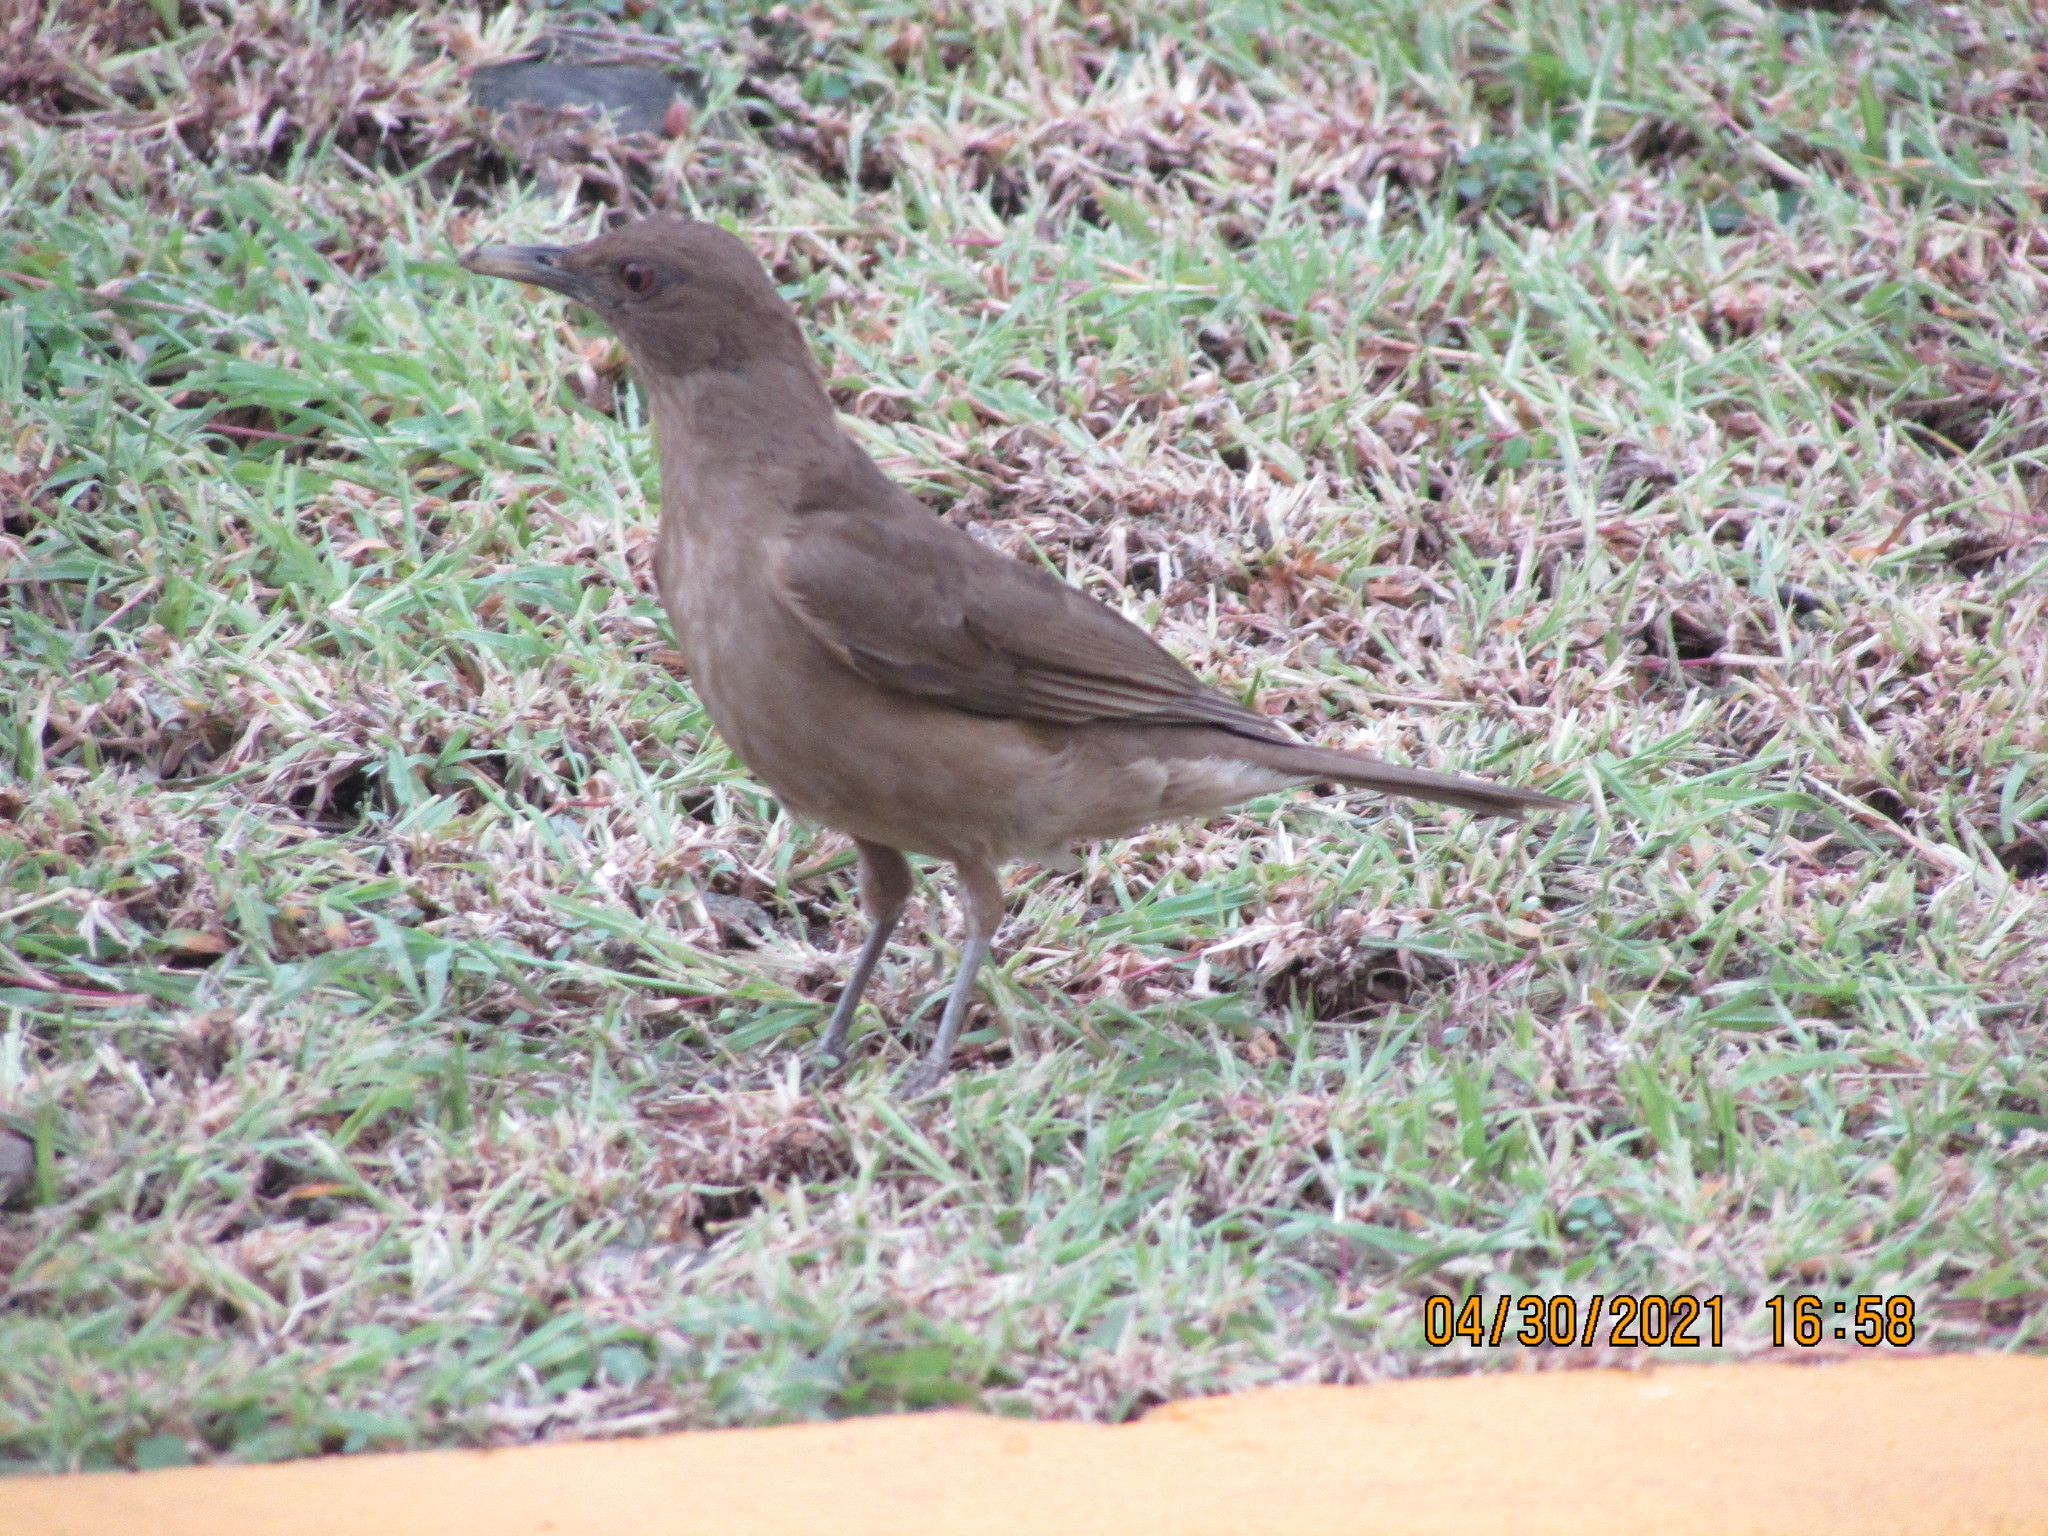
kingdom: Animalia
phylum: Chordata
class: Aves
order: Passeriformes
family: Turdidae
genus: Turdus
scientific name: Turdus grayi
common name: Clay-colored thrush
